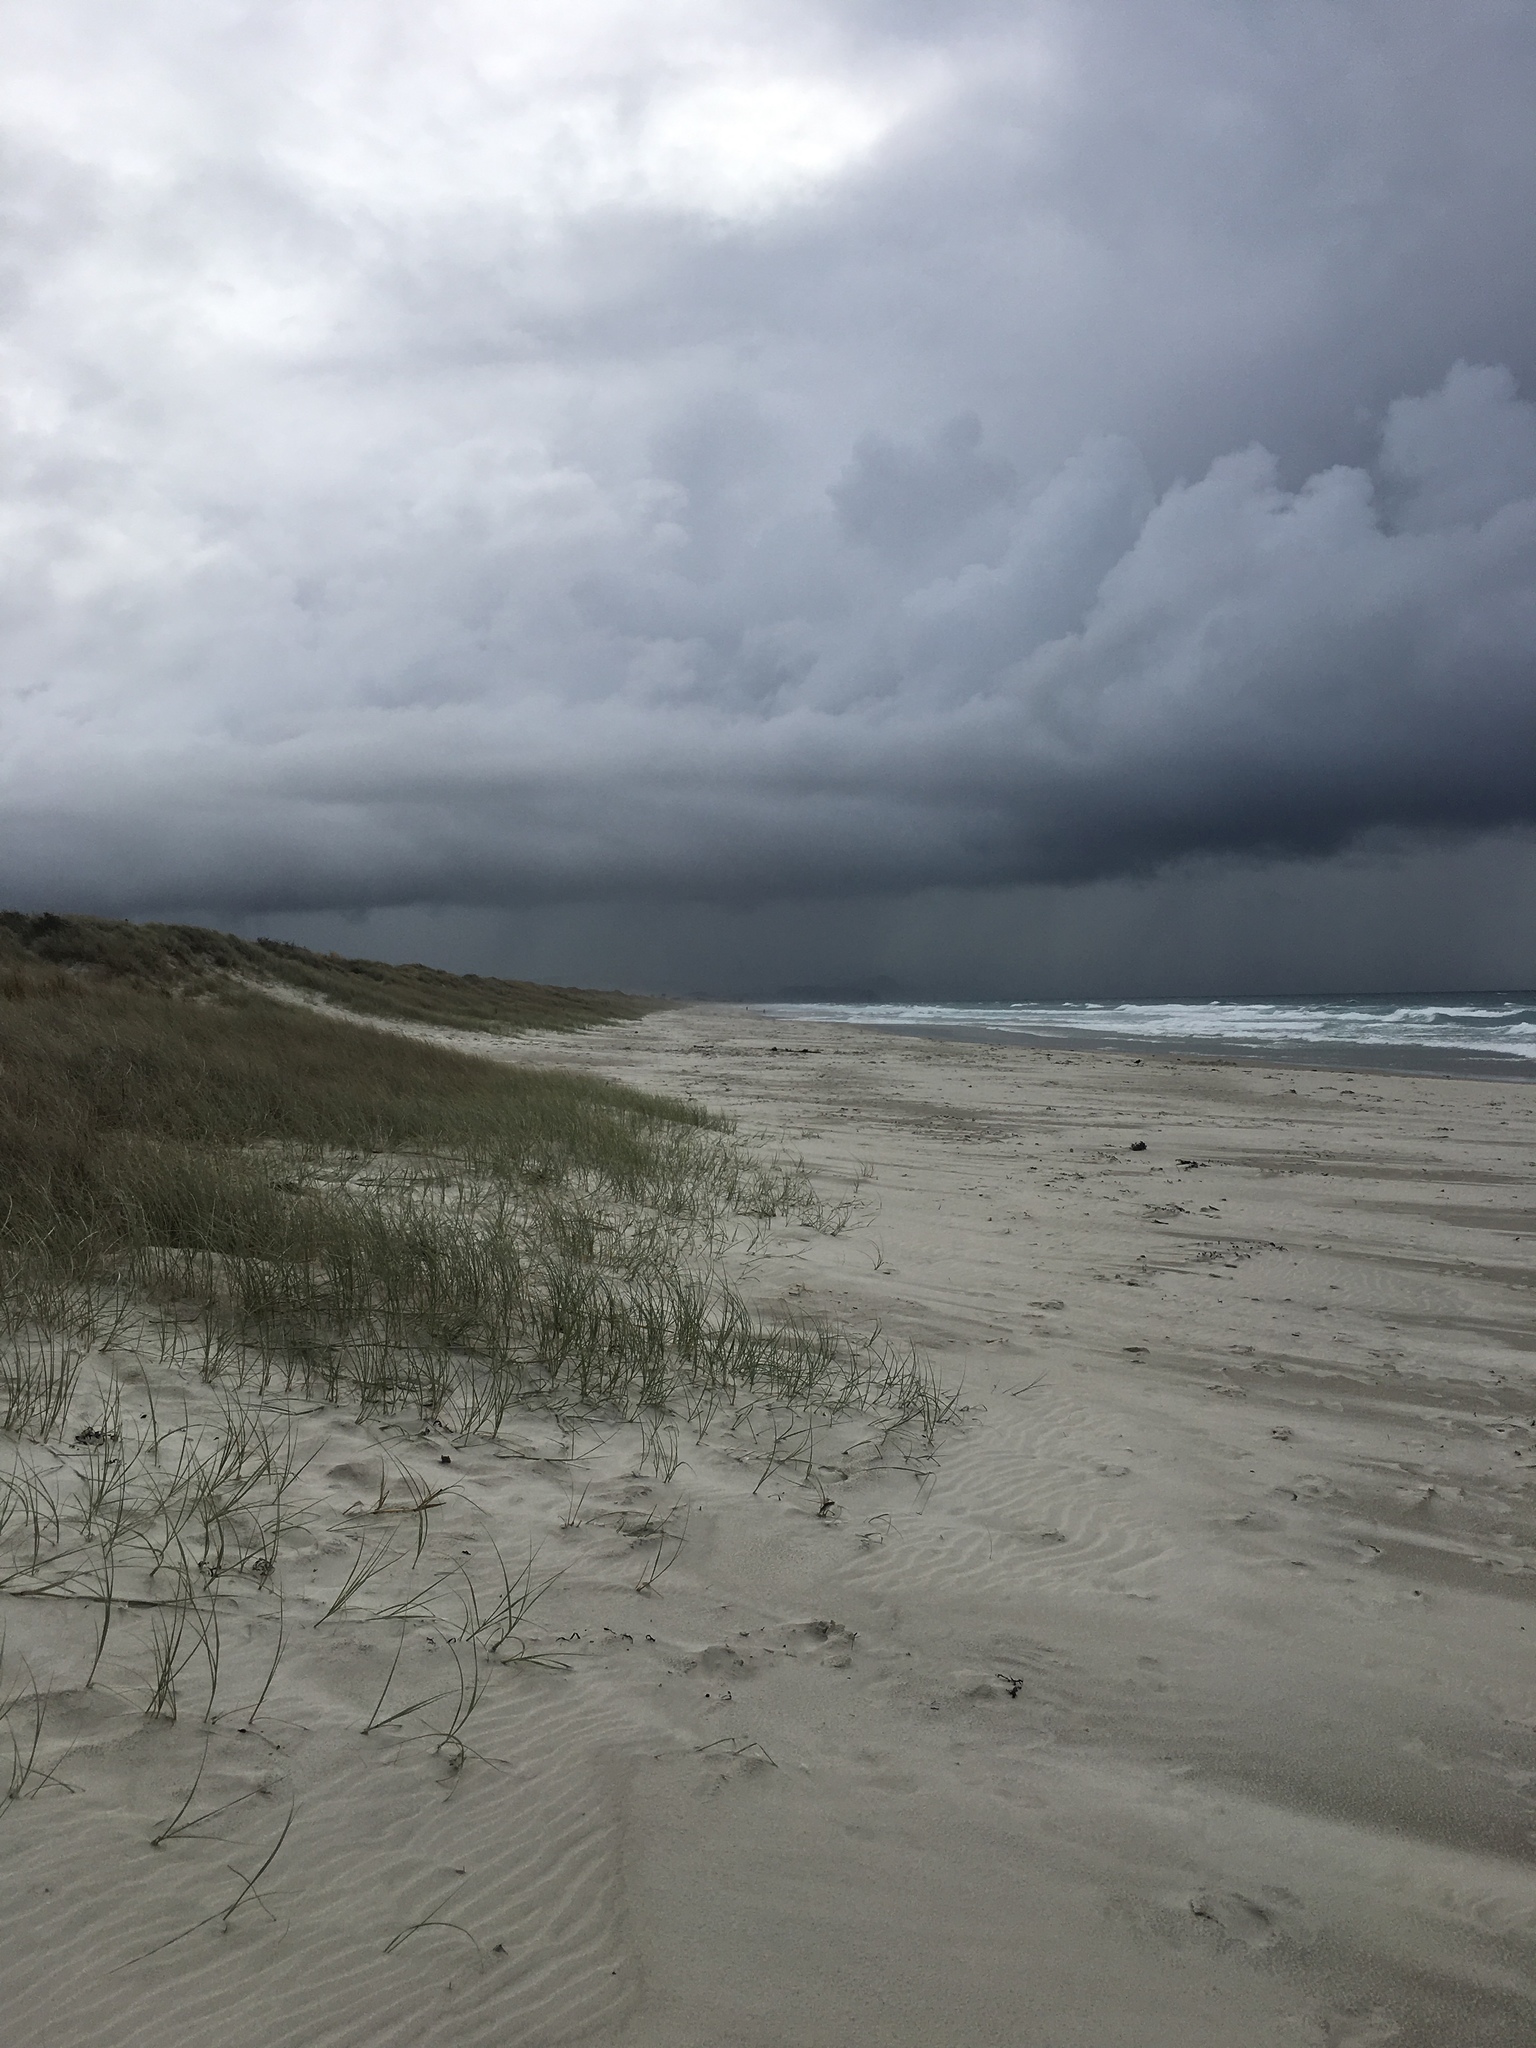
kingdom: Plantae
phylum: Tracheophyta
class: Liliopsida
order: Poales
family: Poaceae
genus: Spinifex
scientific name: Spinifex sericeus
